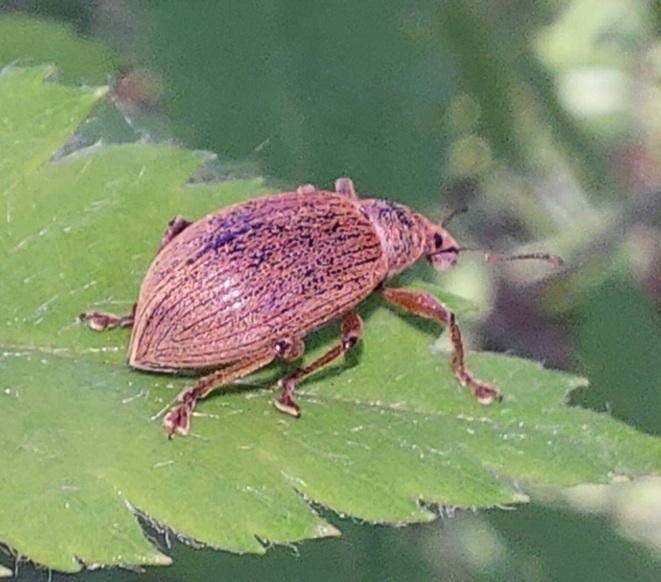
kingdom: Animalia
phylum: Arthropoda
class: Insecta
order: Coleoptera
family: Curculionidae
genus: Polydrusus
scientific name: Polydrusus mollis
